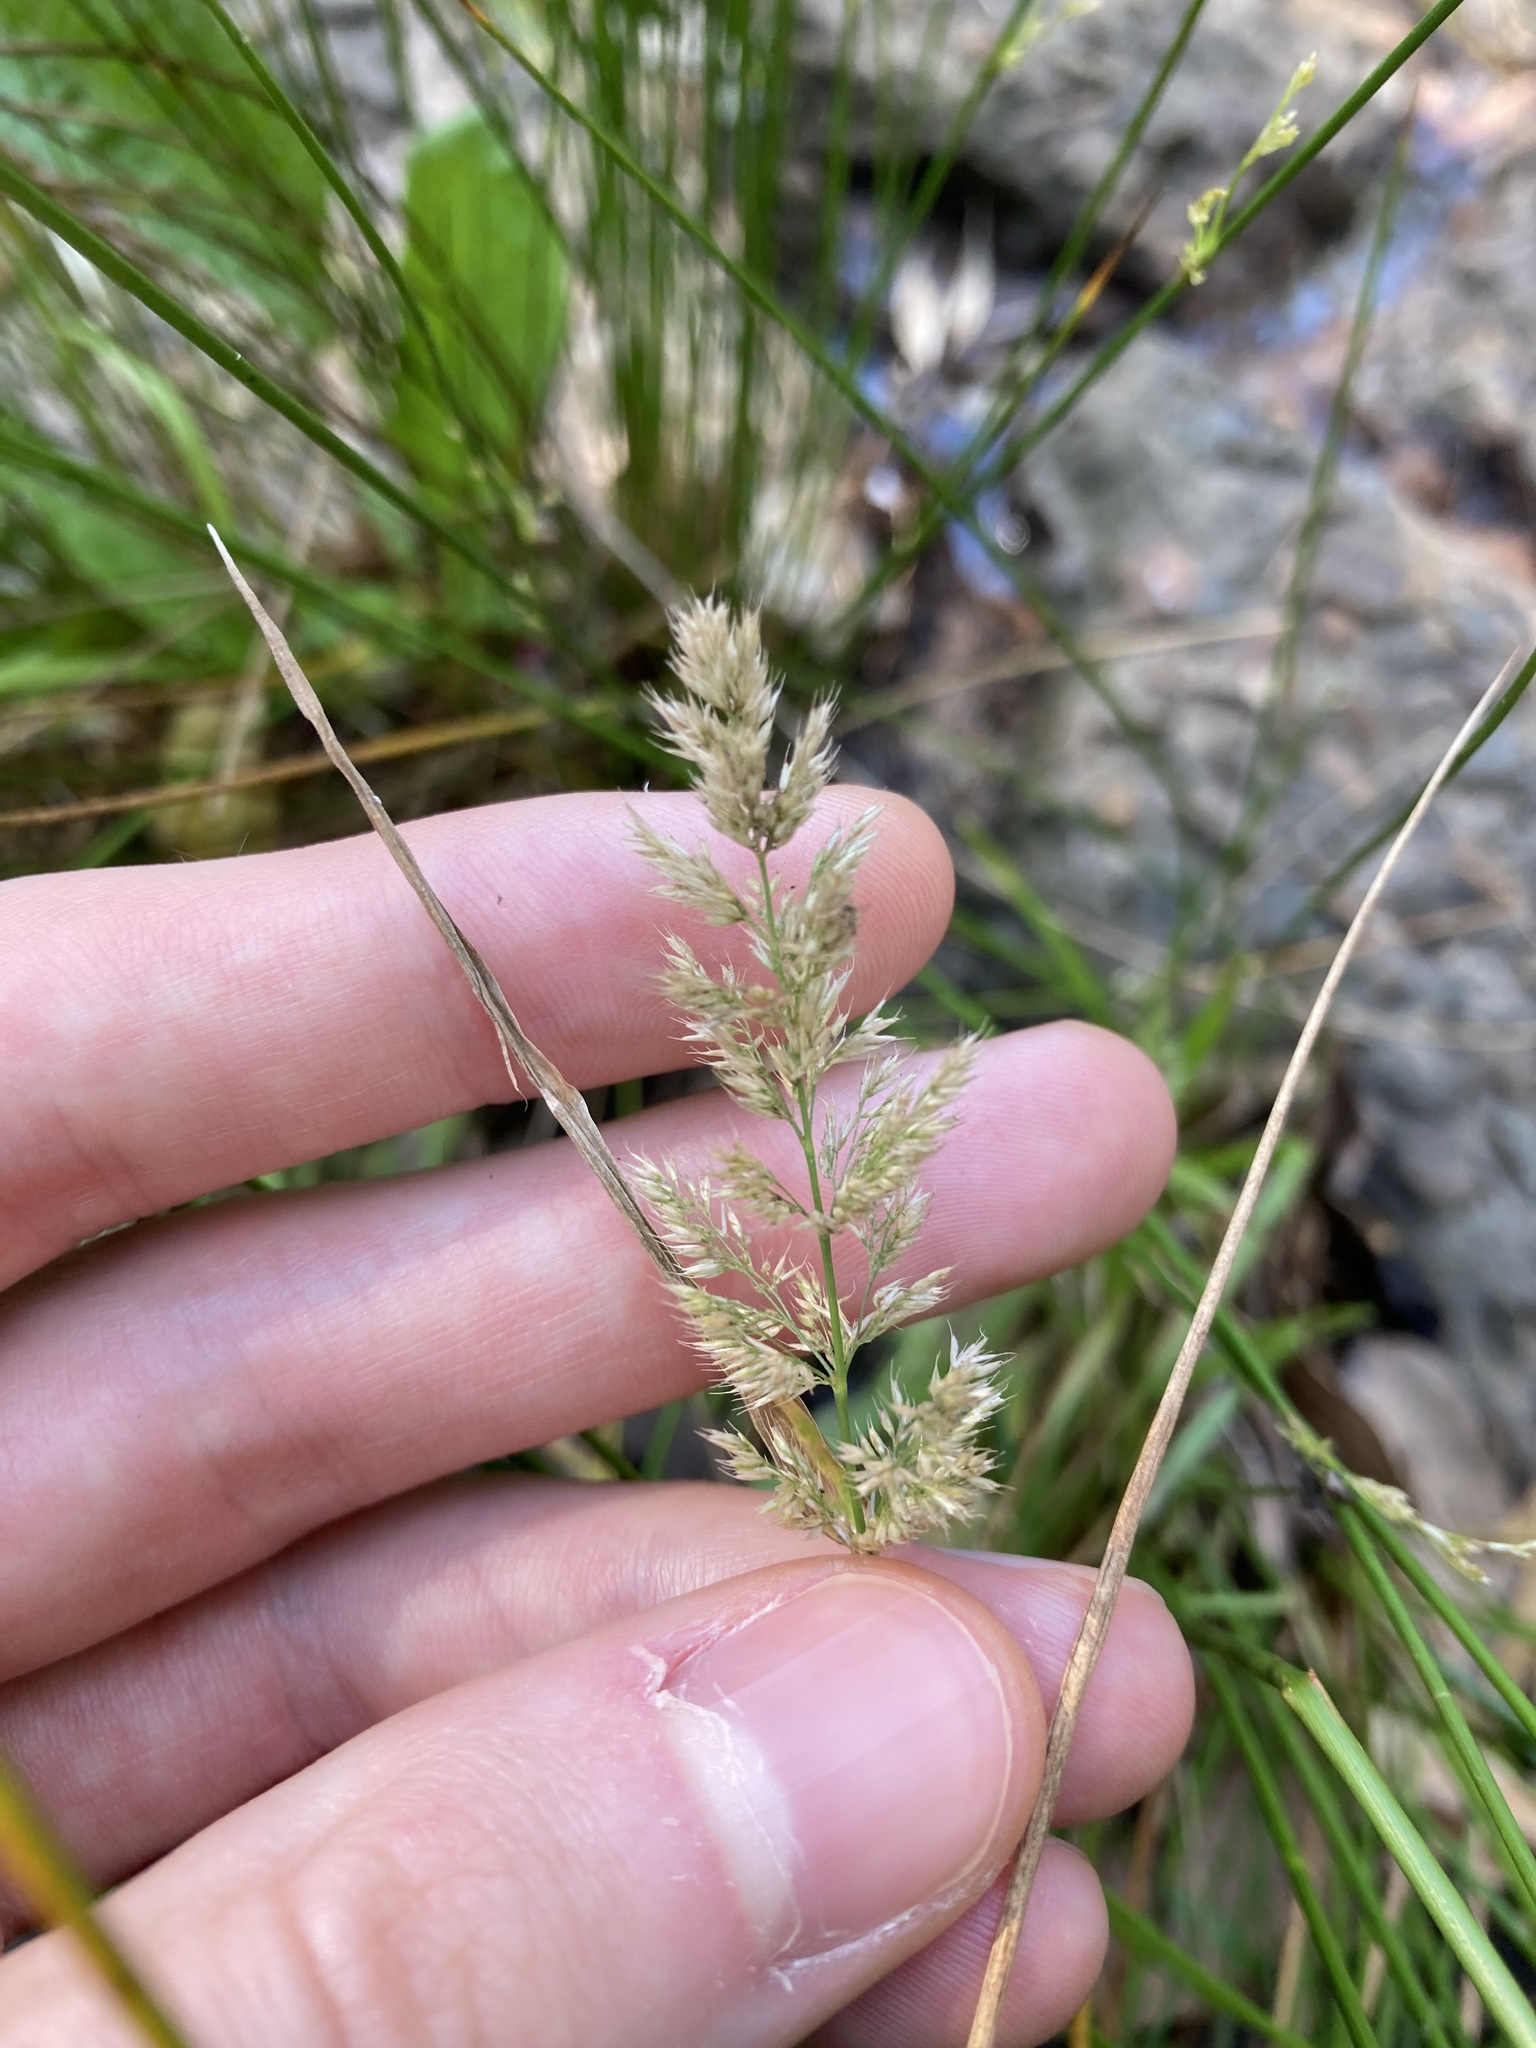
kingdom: Plantae
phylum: Tracheophyta
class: Liliopsida
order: Poales
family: Poaceae
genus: Agropogon
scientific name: Agropogon lutosus
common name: Coast agropogon
